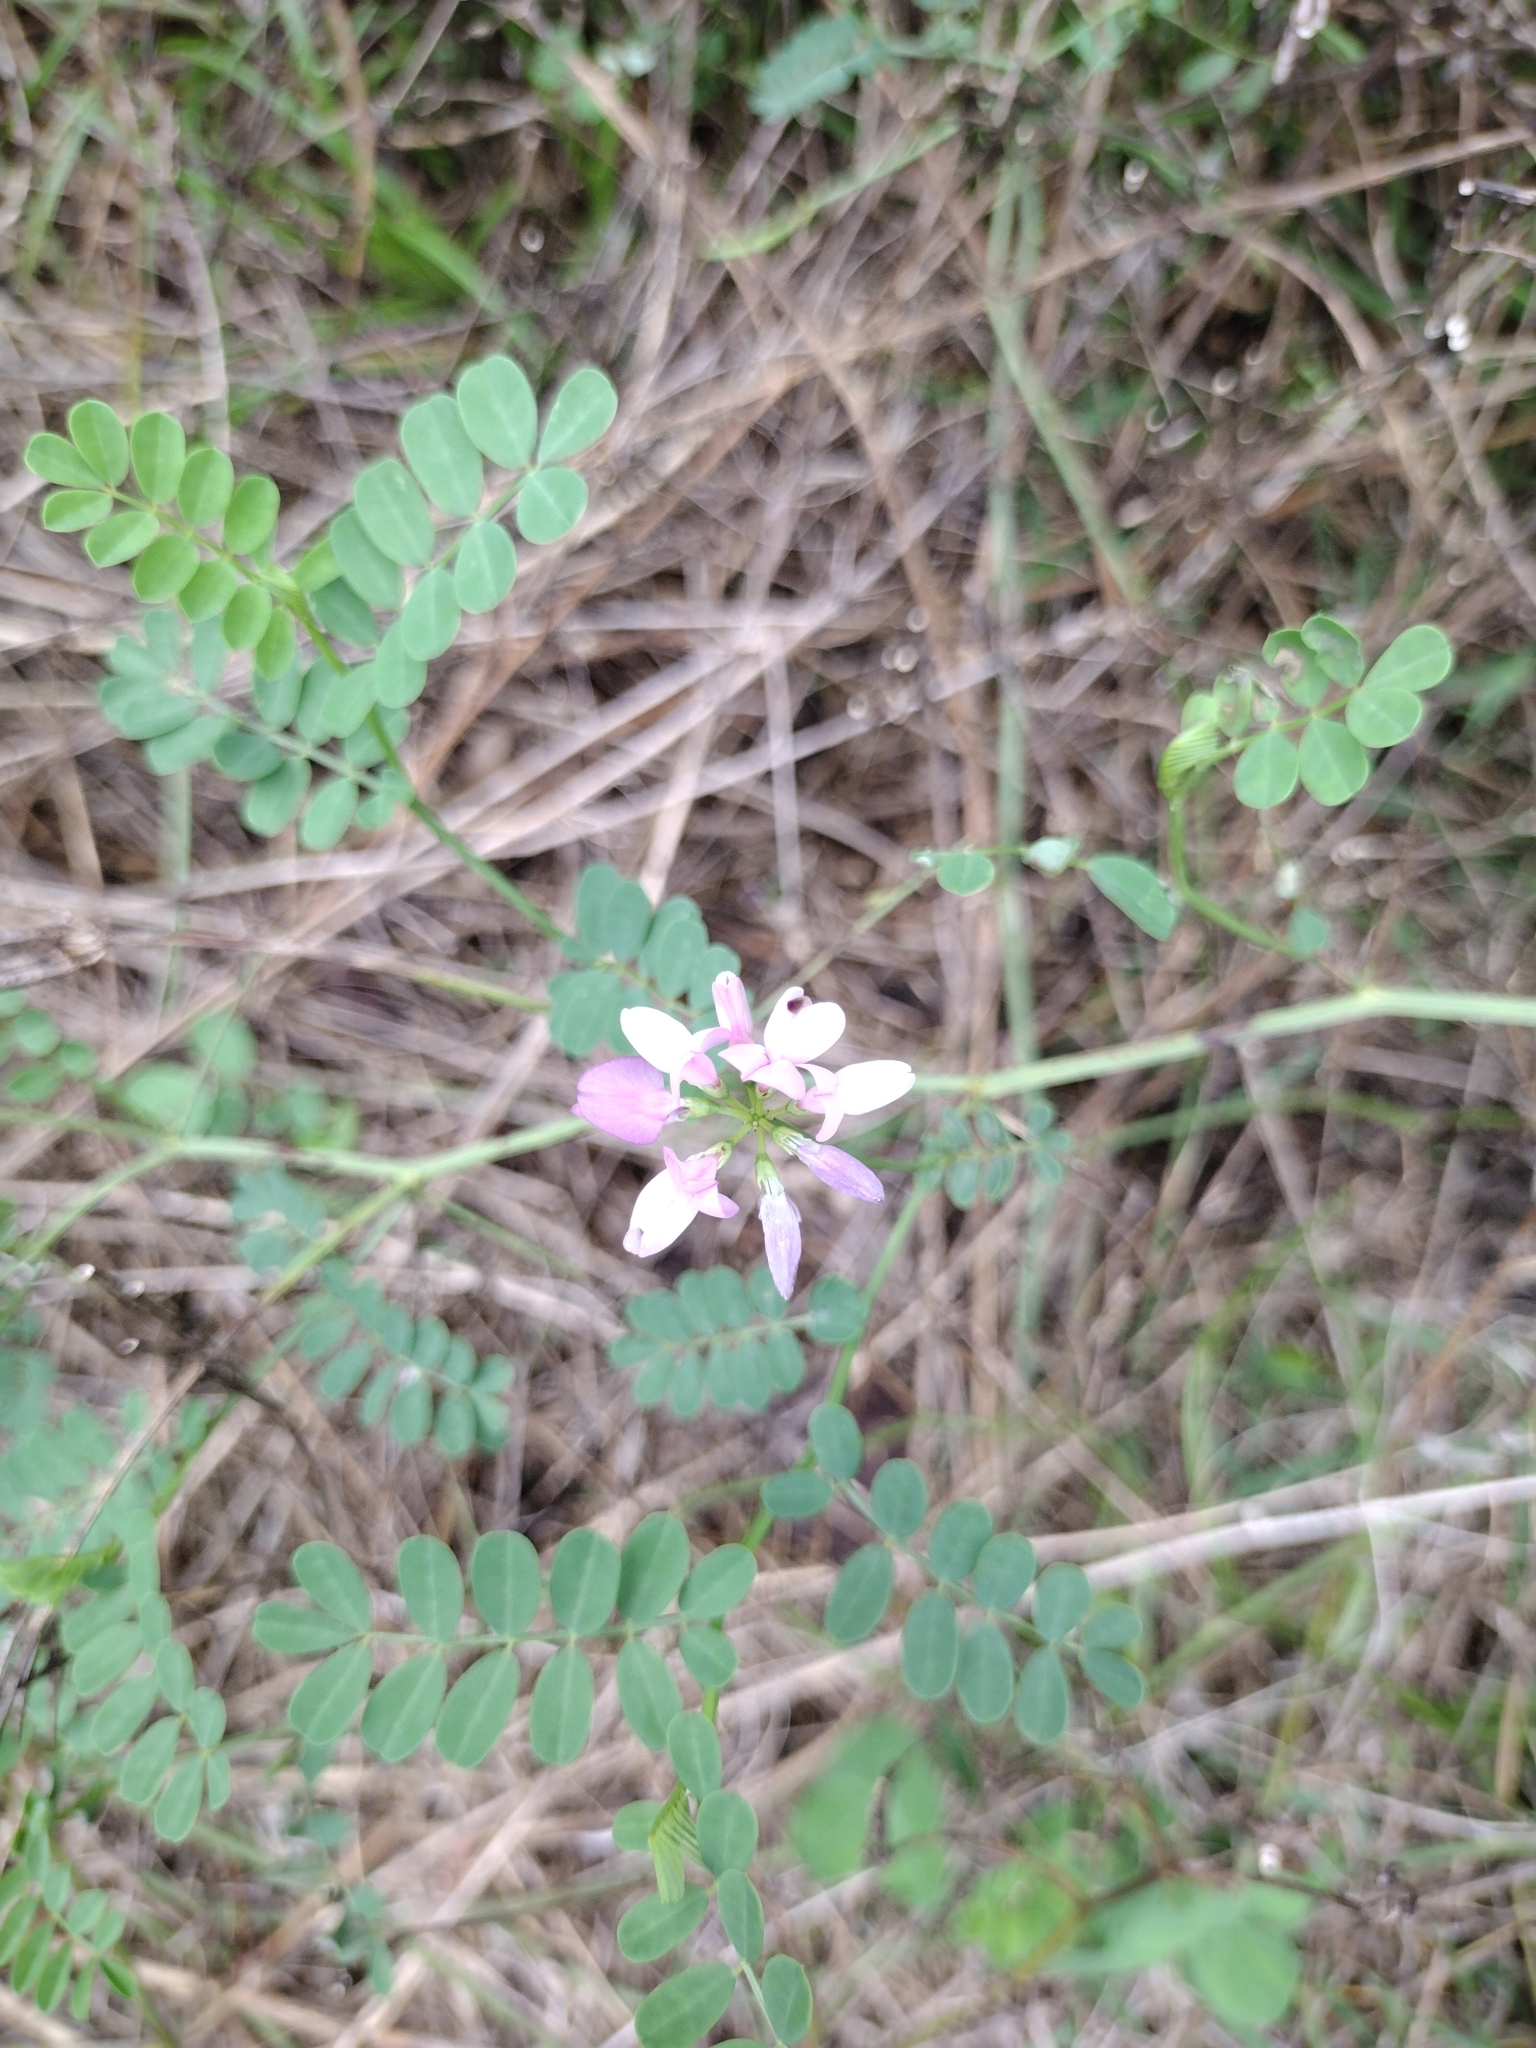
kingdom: Plantae
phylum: Tracheophyta
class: Magnoliopsida
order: Fabales
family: Fabaceae
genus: Coronilla
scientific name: Coronilla varia
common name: Crownvetch
